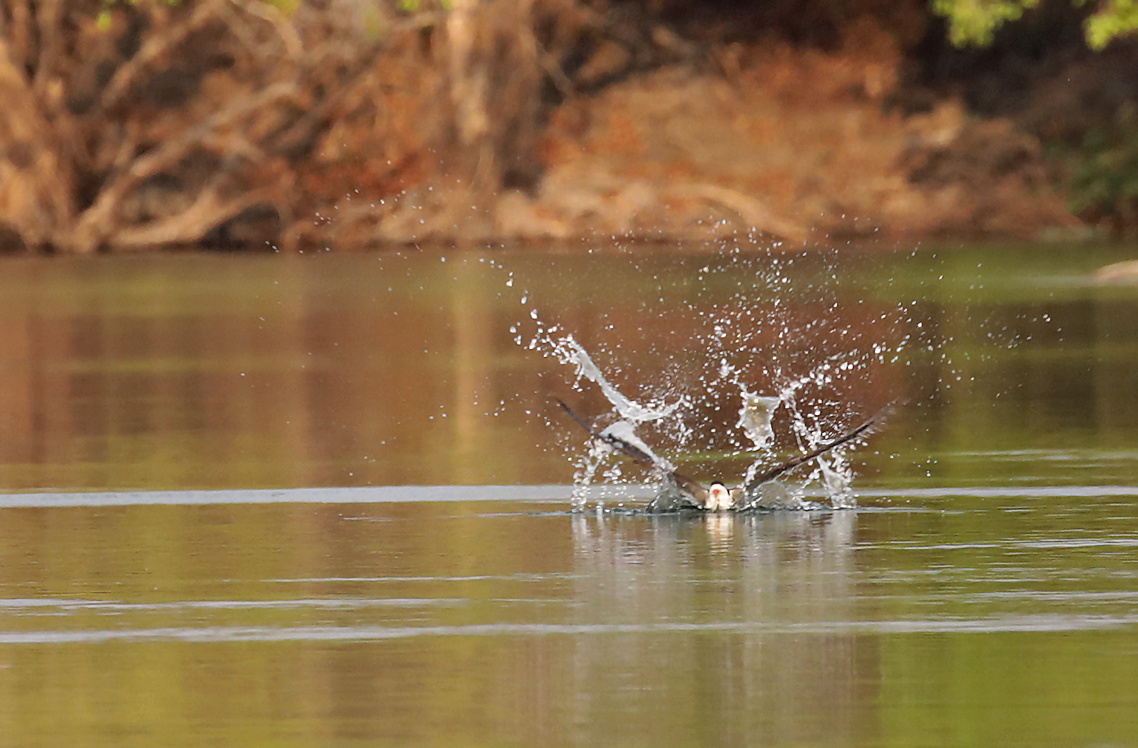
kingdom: Animalia
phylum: Chordata
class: Aves
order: Charadriiformes
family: Laridae
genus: Rynchops
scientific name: Rynchops flavirostris
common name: African skimmer
